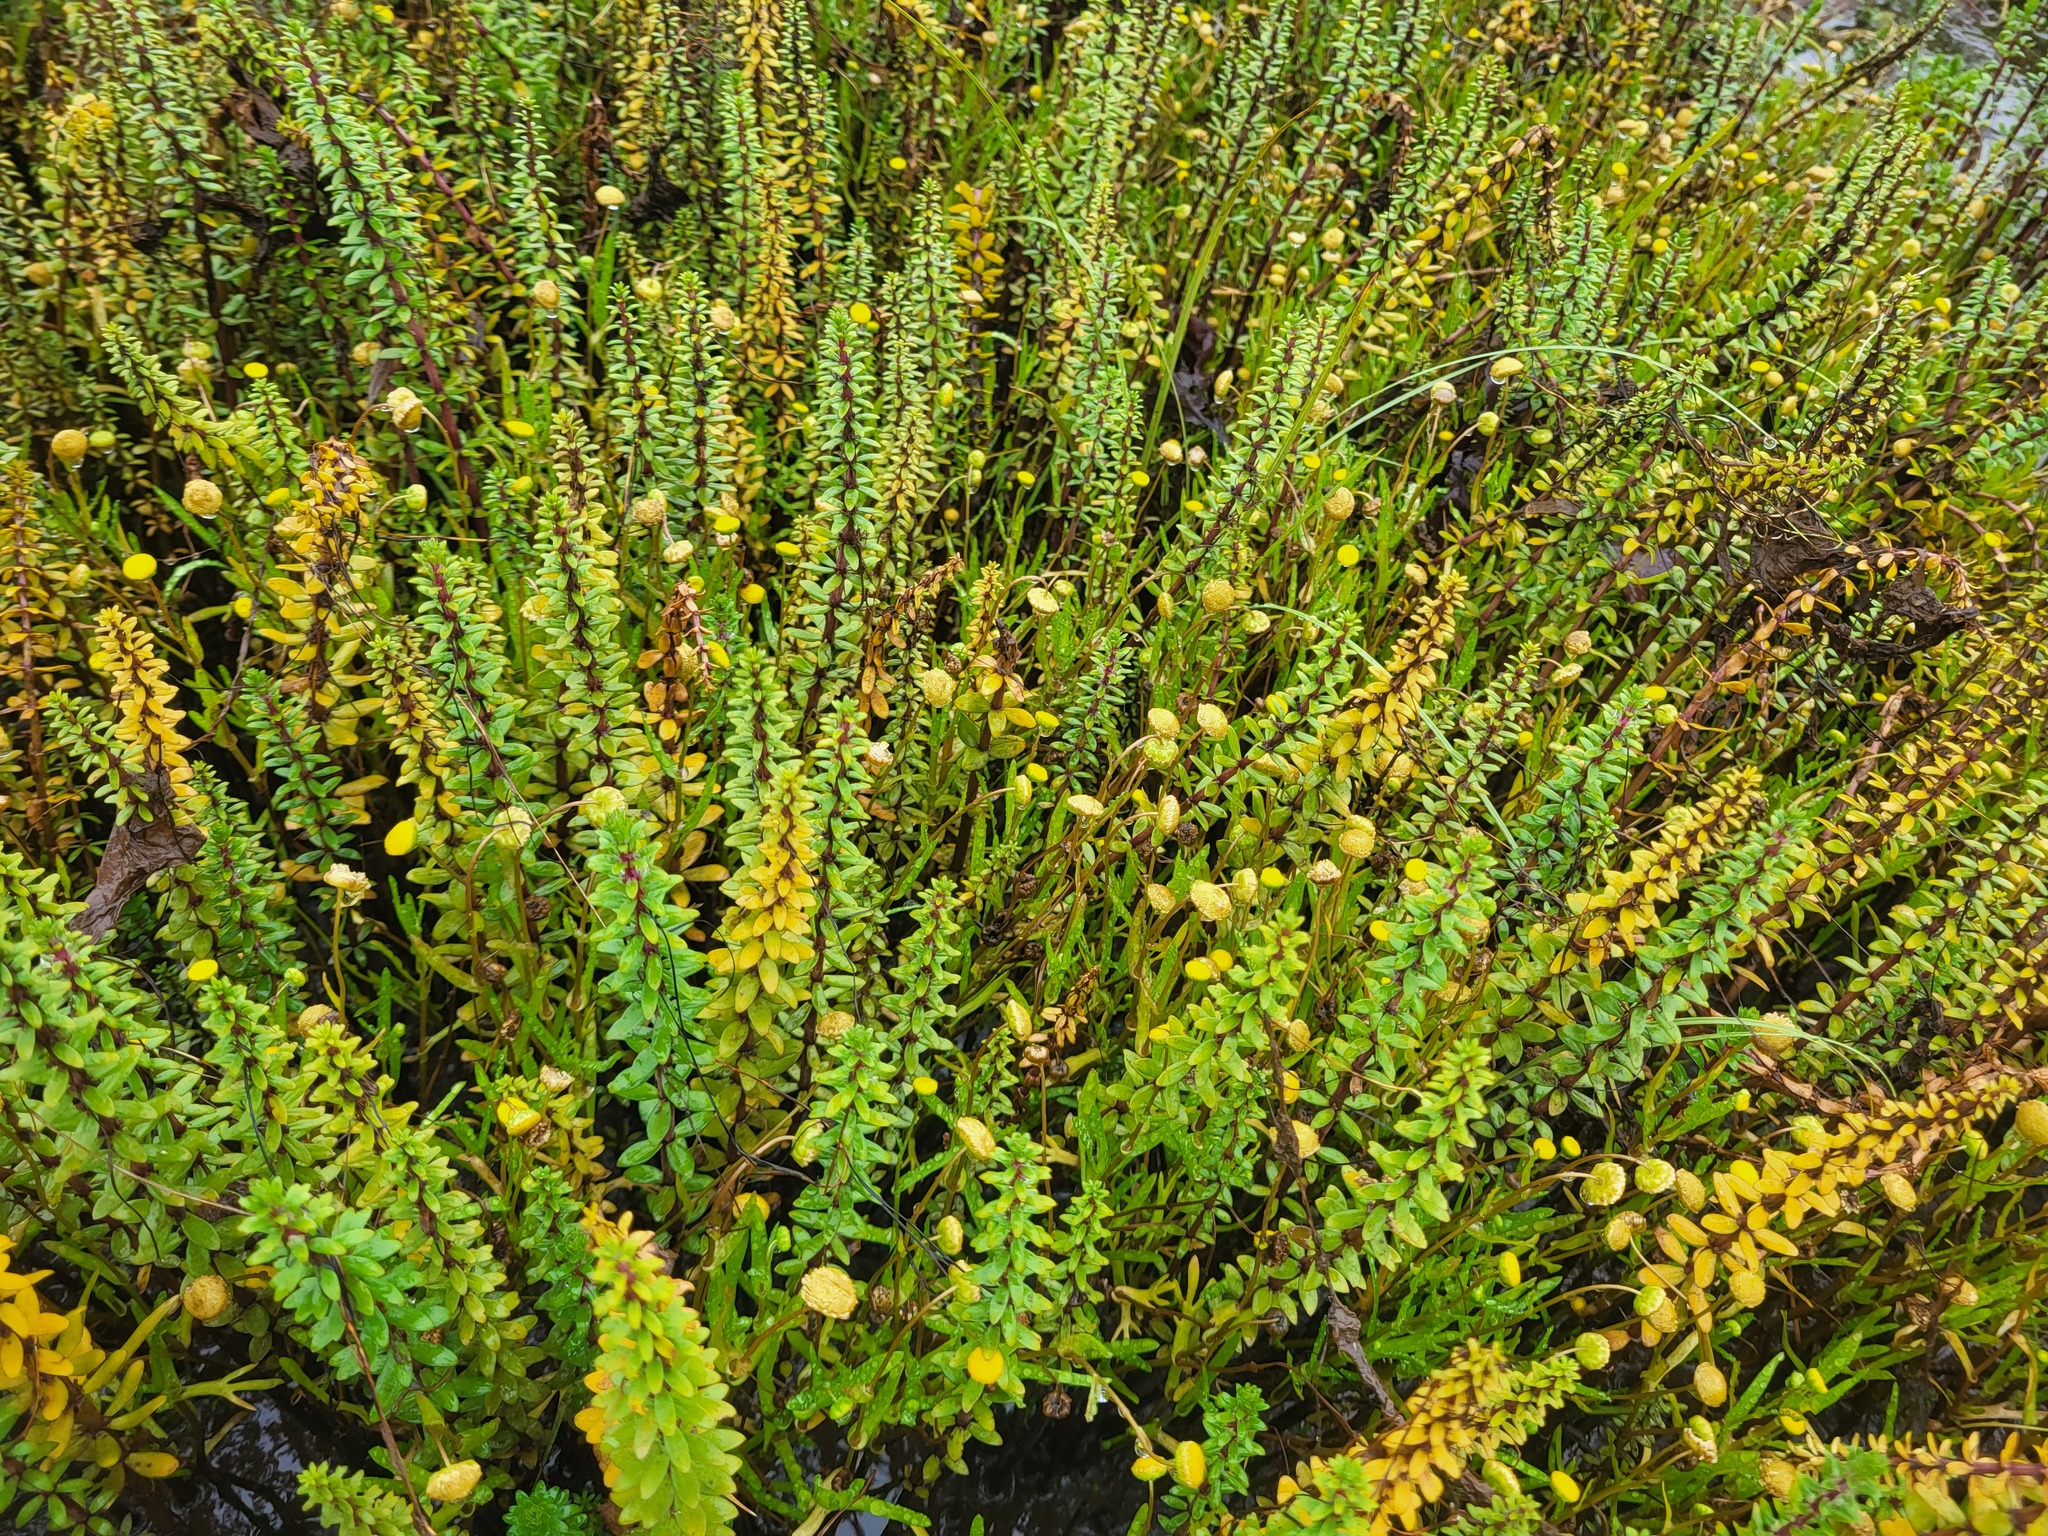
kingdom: Plantae
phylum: Tracheophyta
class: Magnoliopsida
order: Lamiales
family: Plantaginaceae
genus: Hippuris
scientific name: Hippuris tetraphylla
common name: Four-leaved mare's-tail
